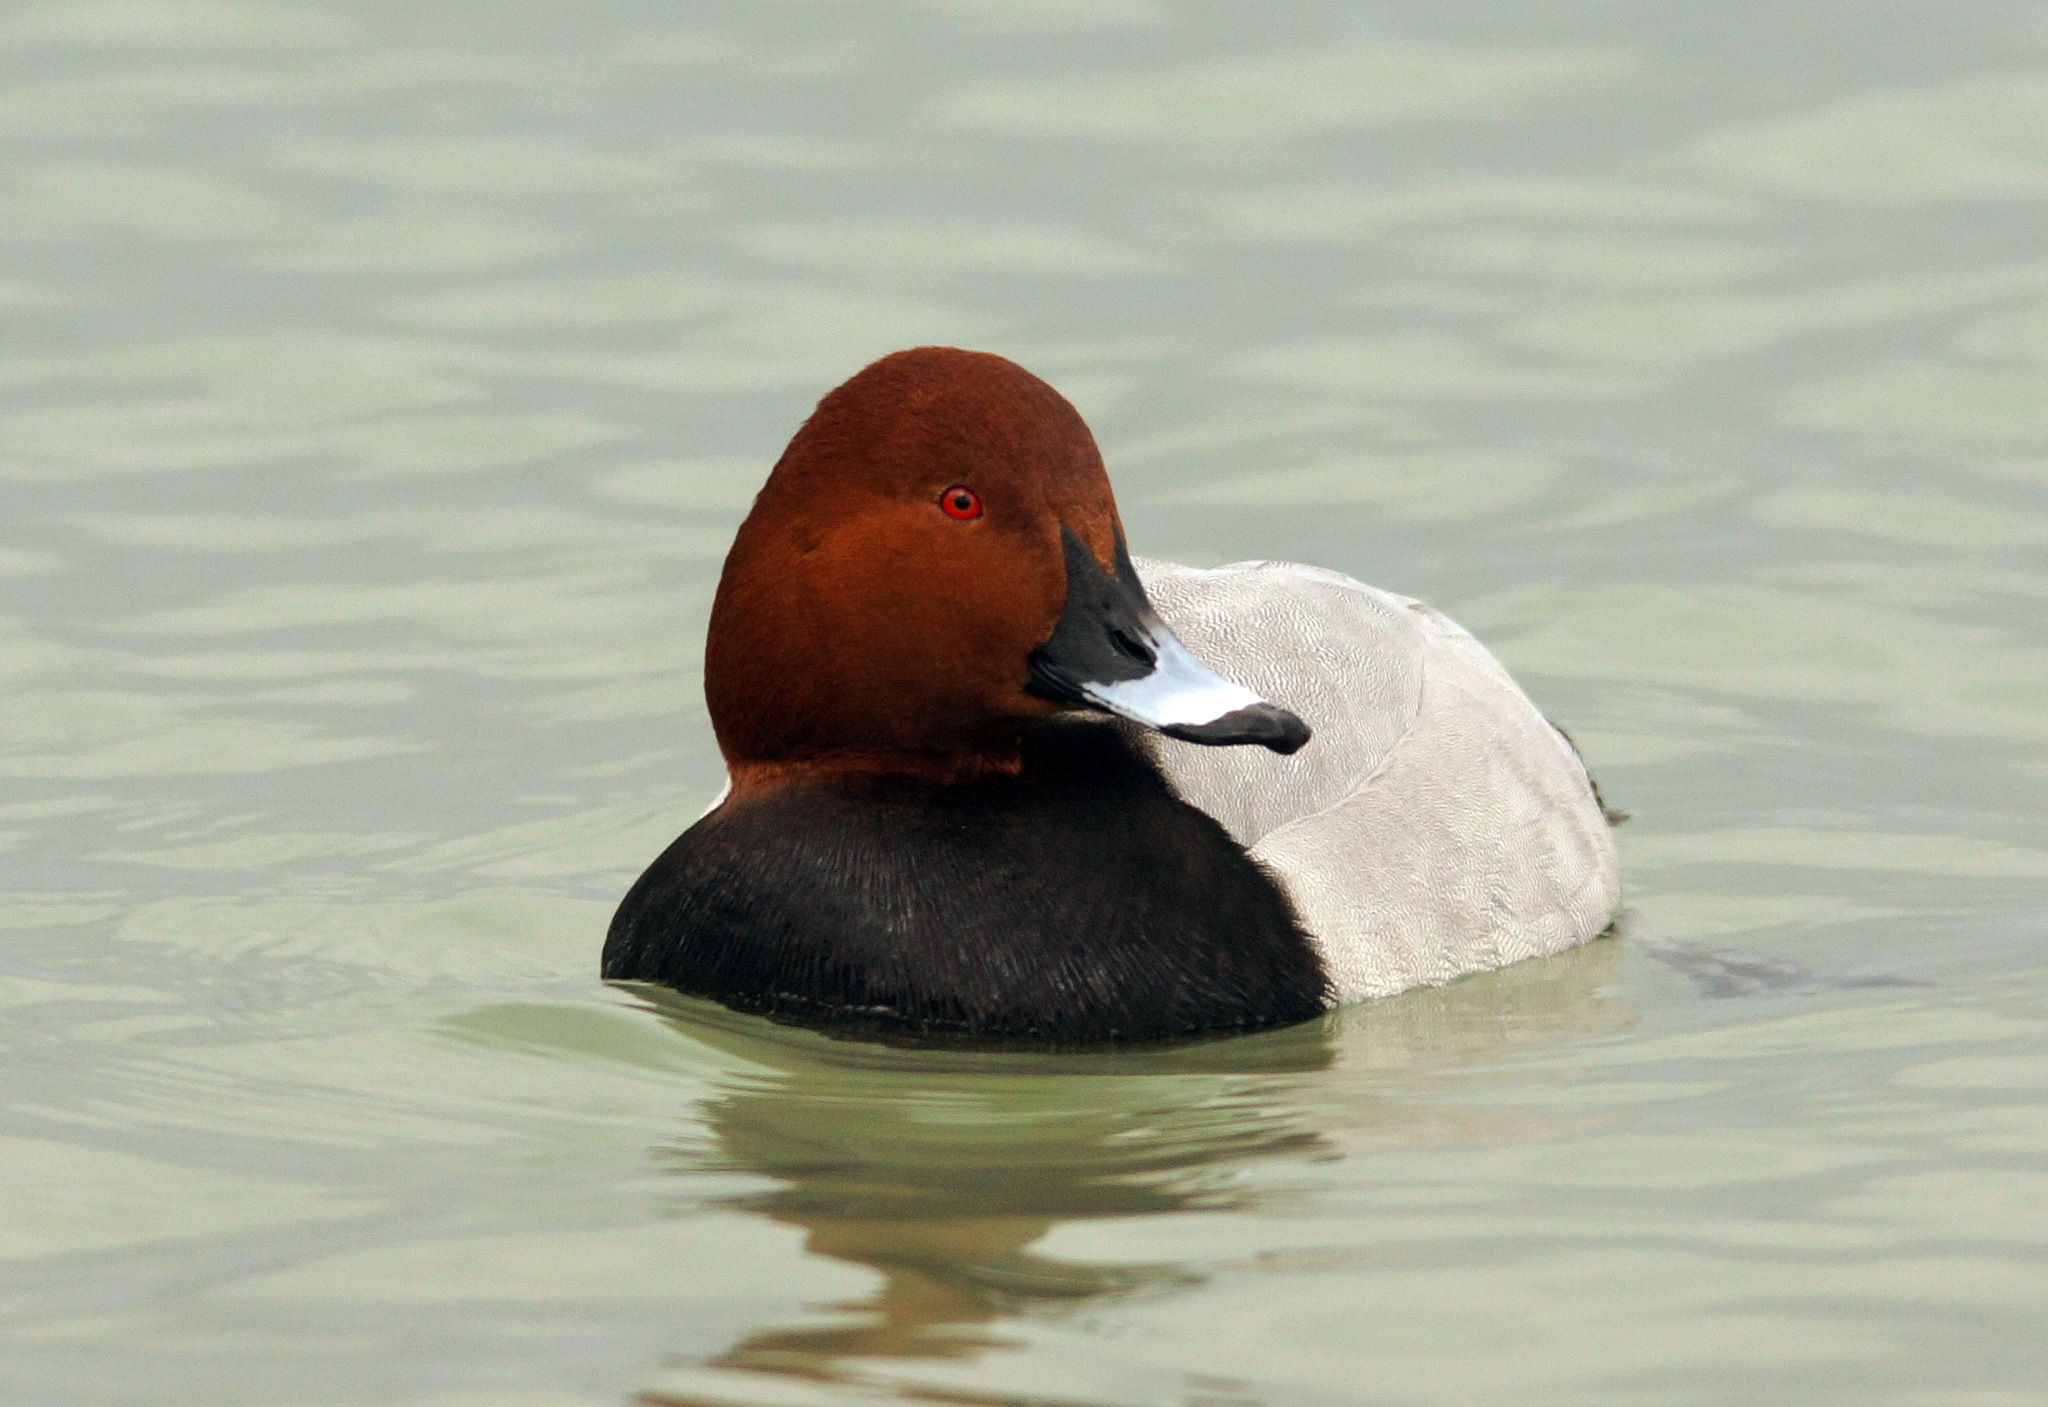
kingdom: Animalia
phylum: Chordata
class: Aves
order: Anseriformes
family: Anatidae
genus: Aythya
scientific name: Aythya ferina
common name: Common pochard
